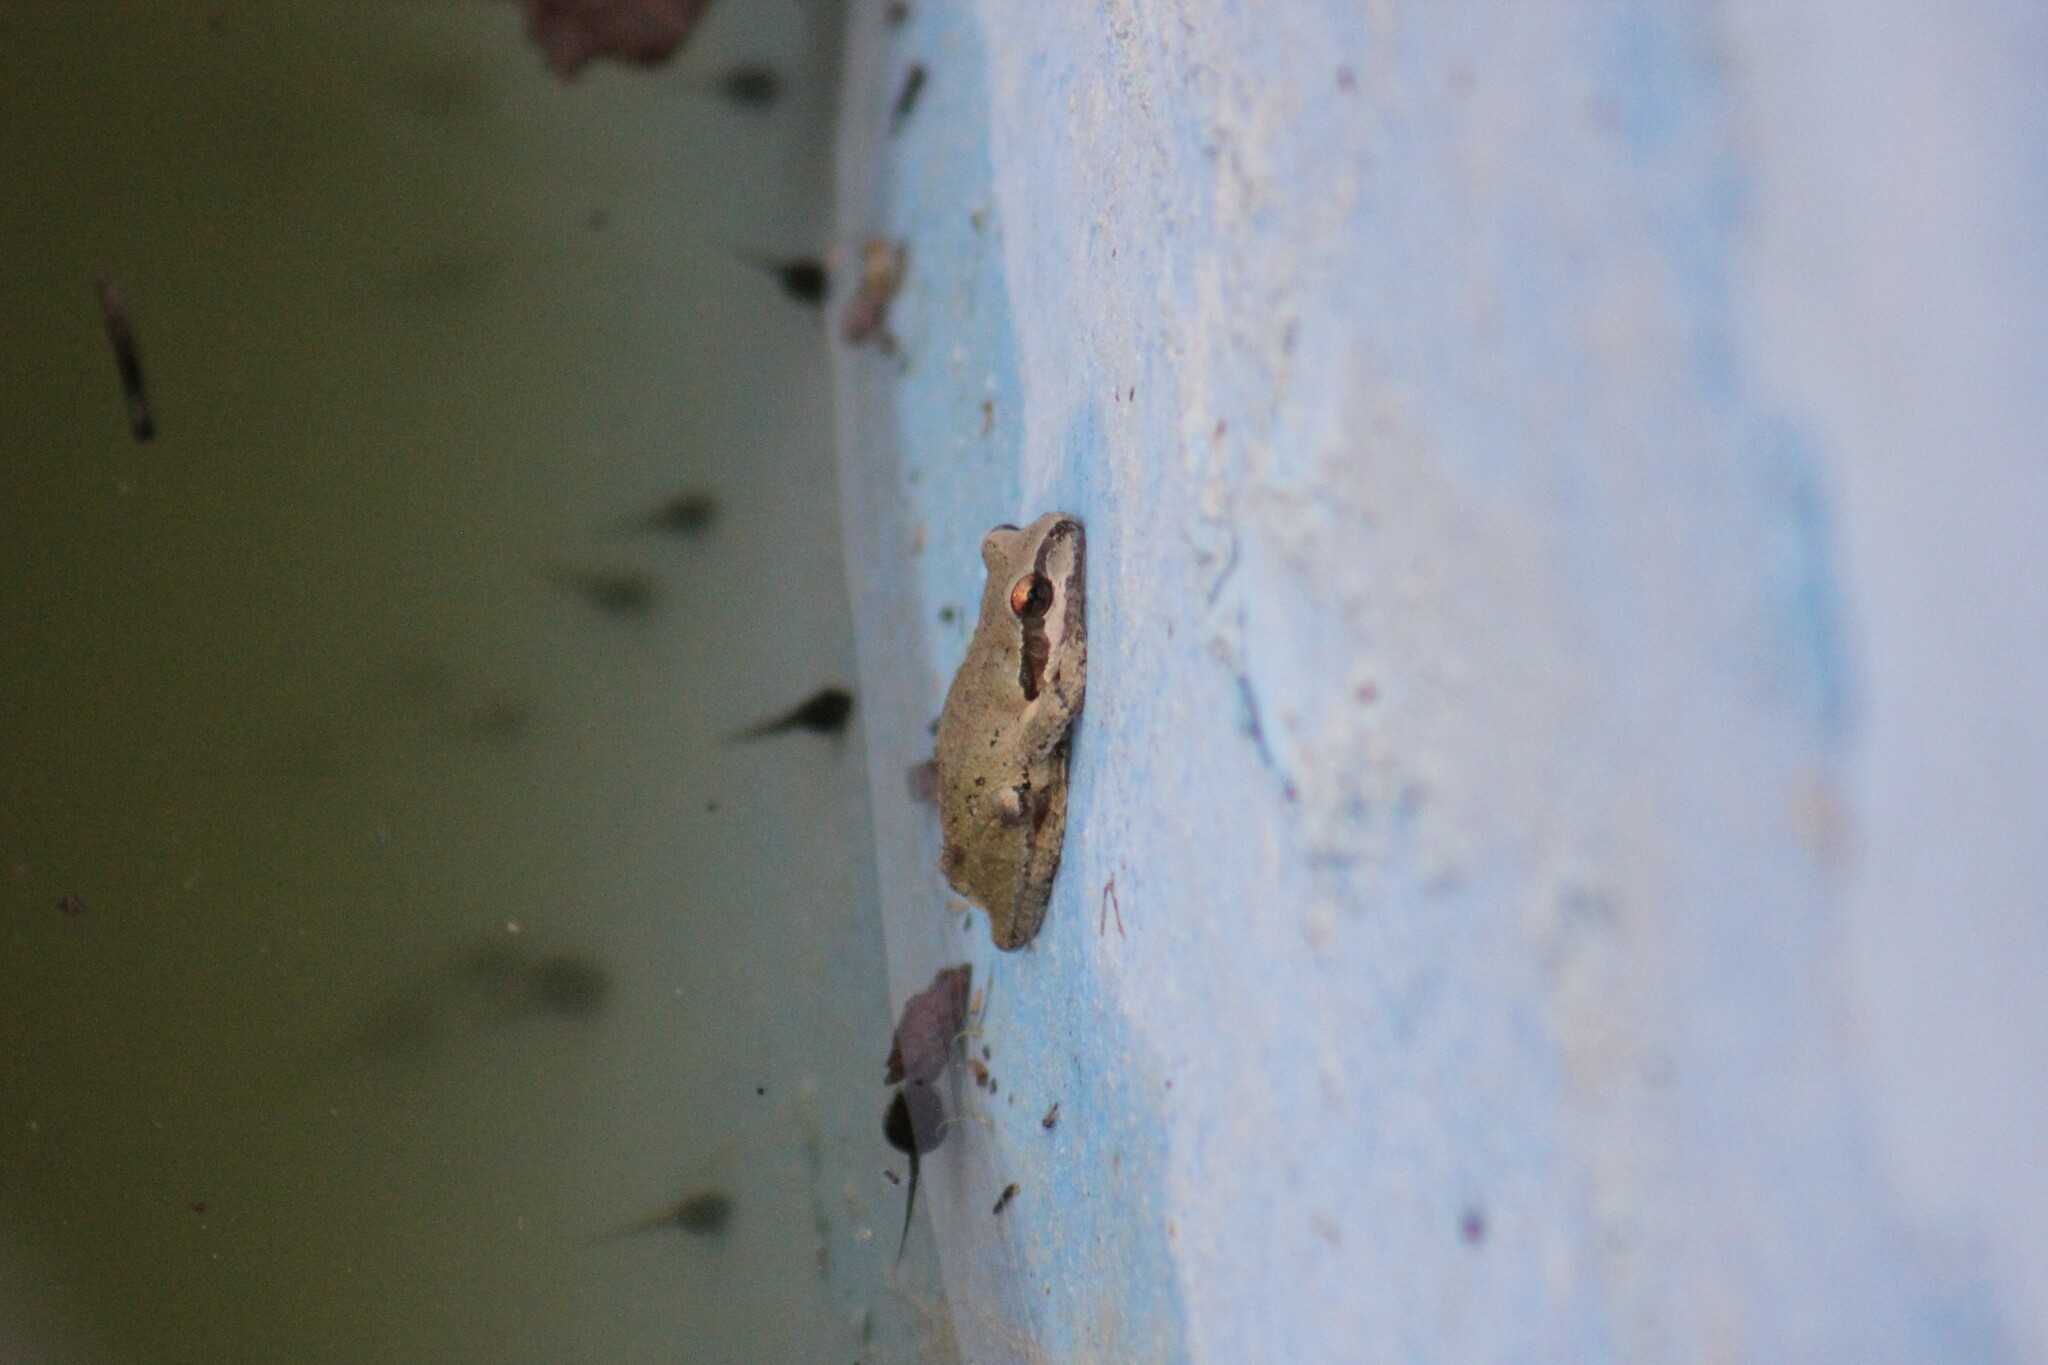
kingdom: Animalia
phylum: Chordata
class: Amphibia
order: Anura
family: Hylidae
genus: Pseudacris
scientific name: Pseudacris regilla
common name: Pacific chorus frog
